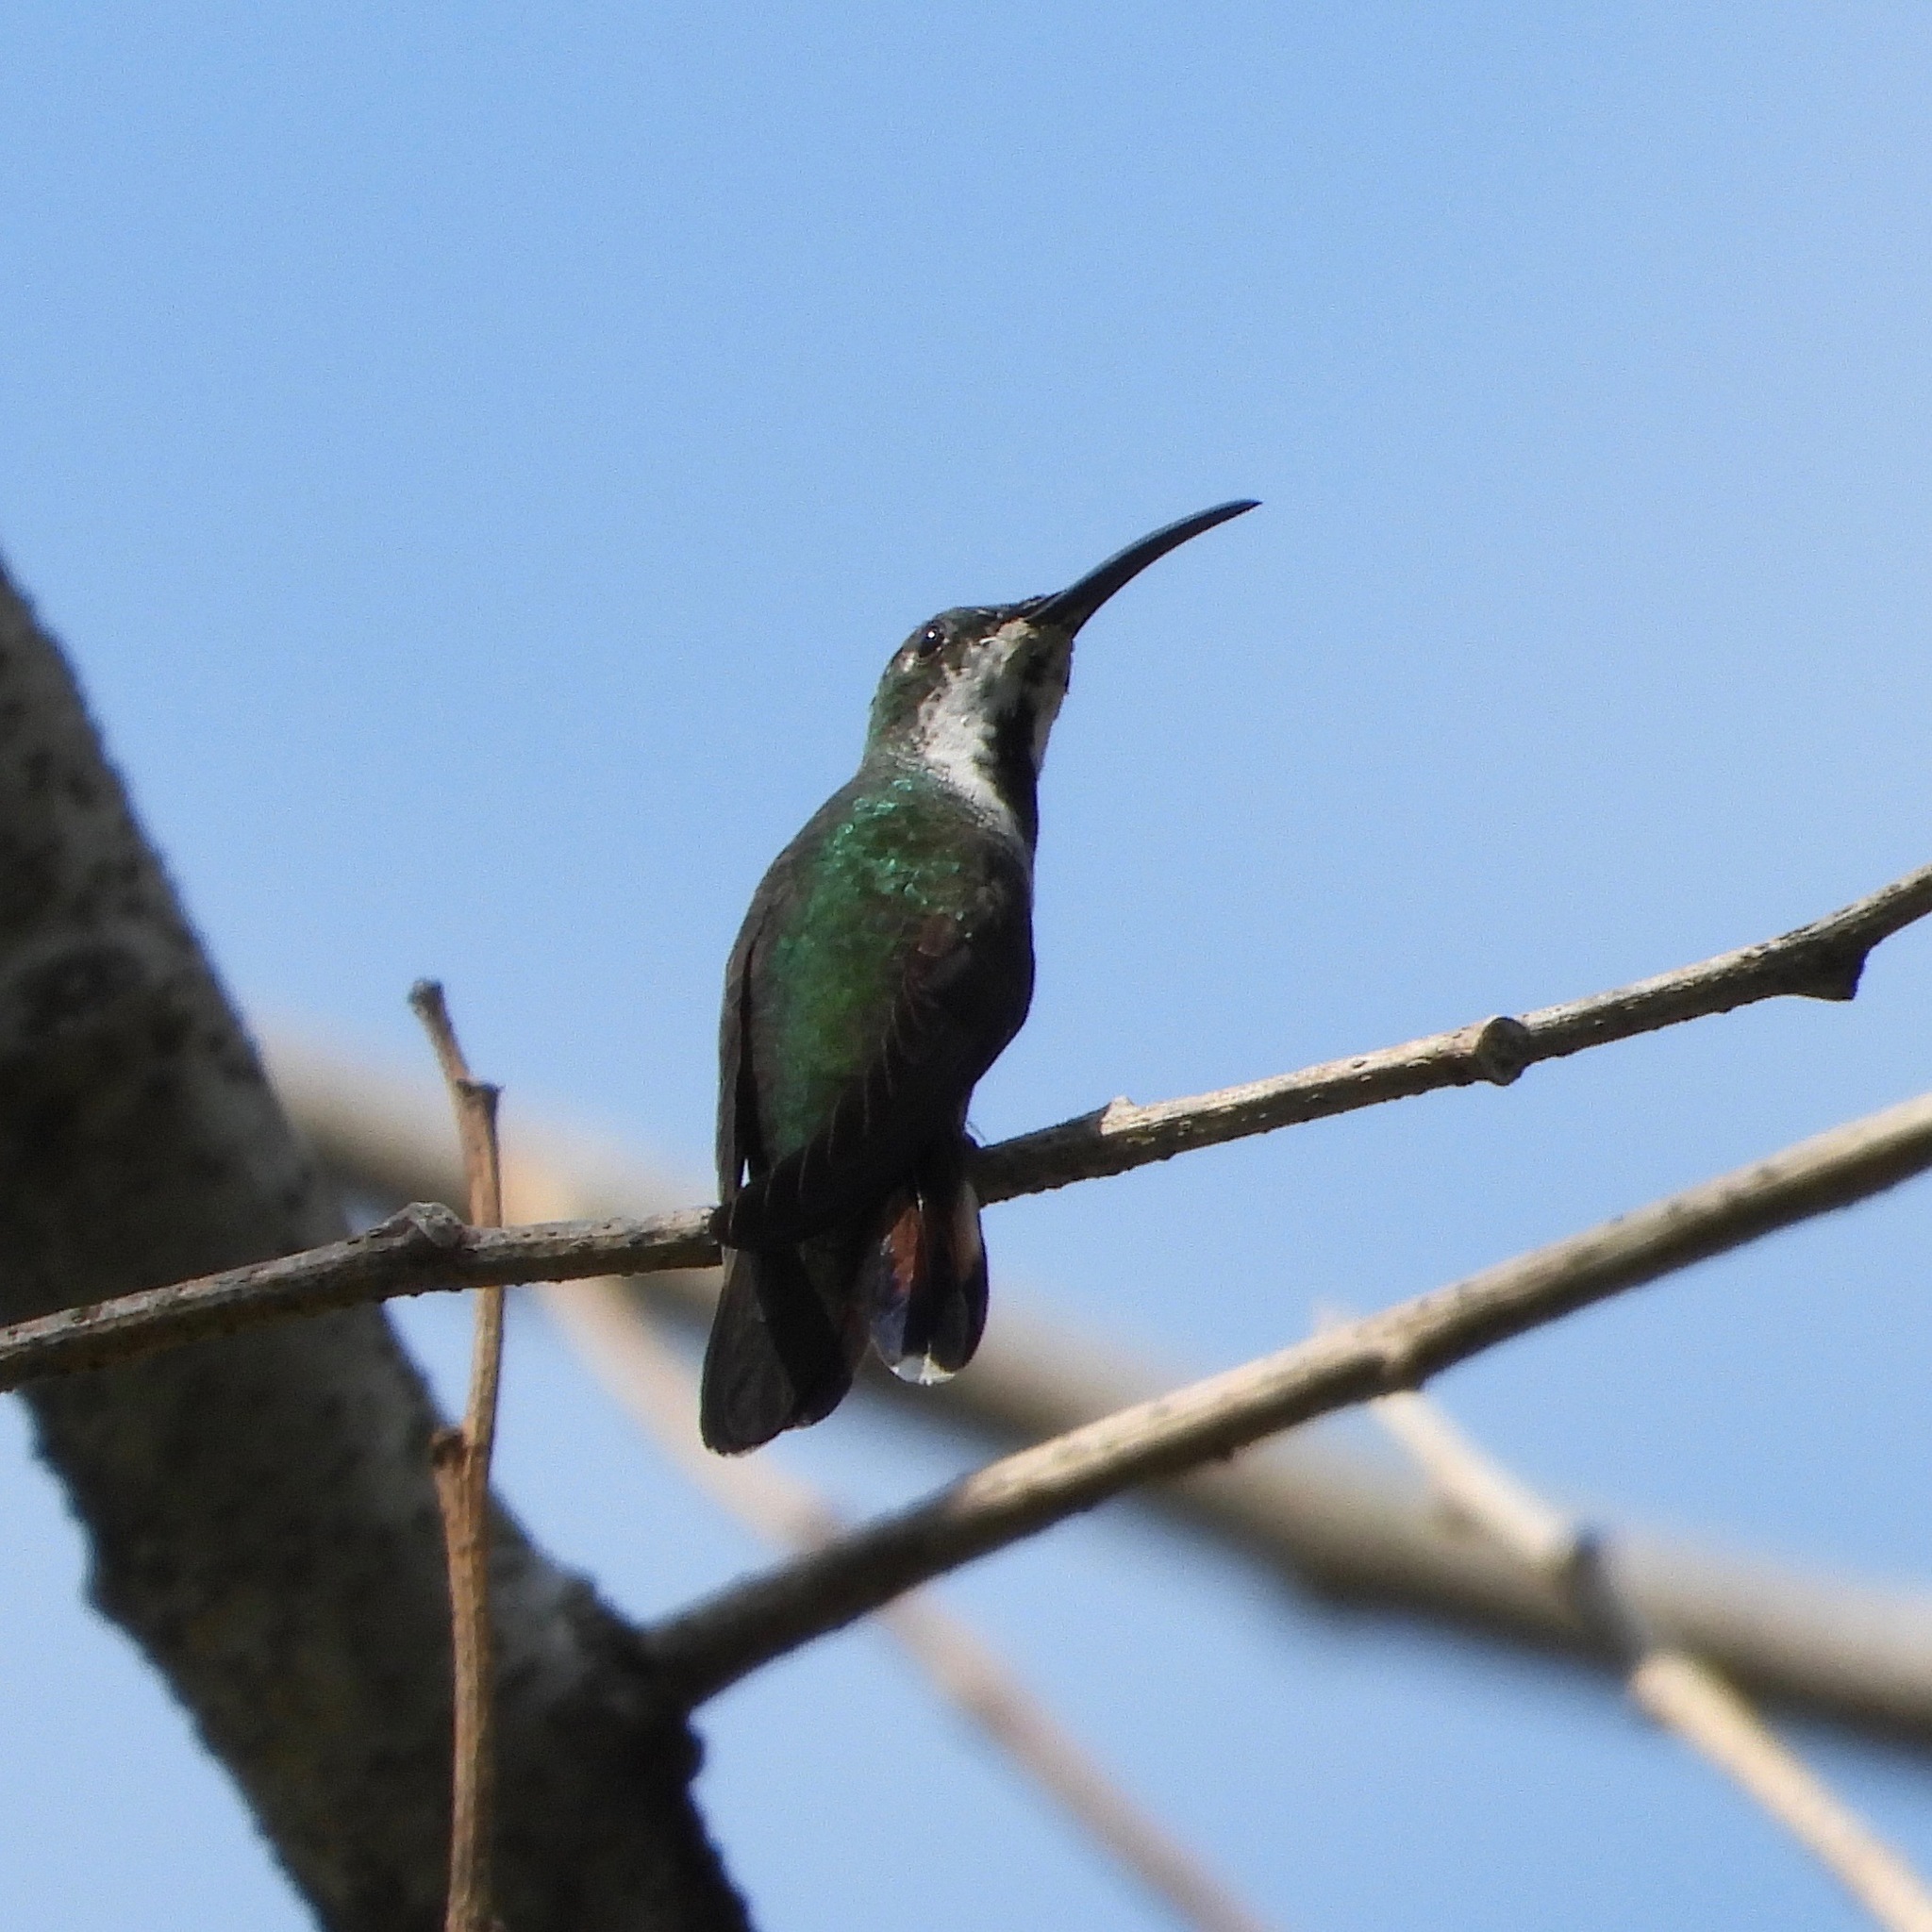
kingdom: Animalia
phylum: Chordata
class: Aves
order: Apodiformes
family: Trochilidae
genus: Anthracothorax
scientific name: Anthracothorax prevostii
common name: Green-breasted mango
